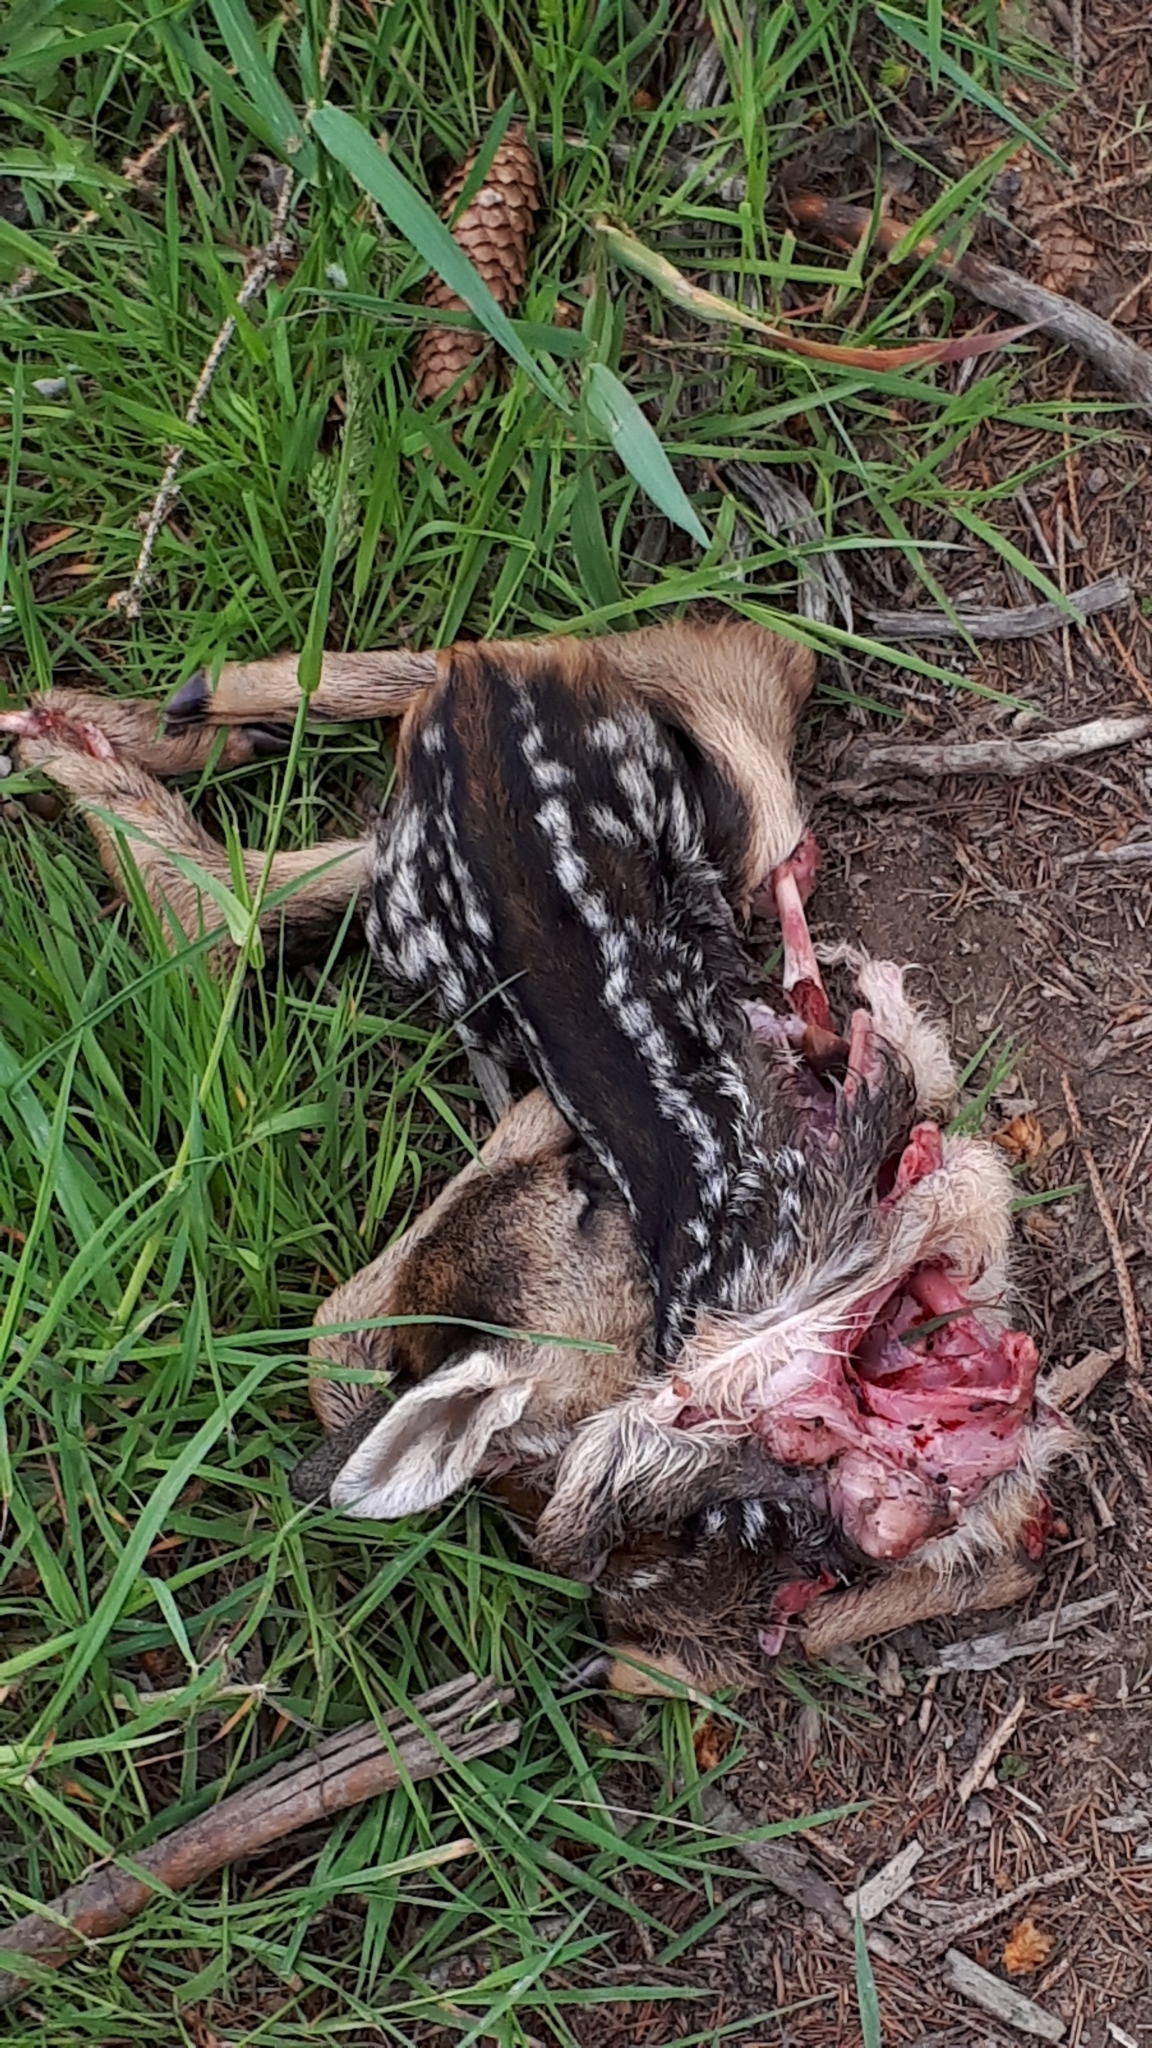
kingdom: Animalia
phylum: Chordata
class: Mammalia
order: Artiodactyla
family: Cervidae
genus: Capreolus
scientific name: Capreolus capreolus
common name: Western roe deer
